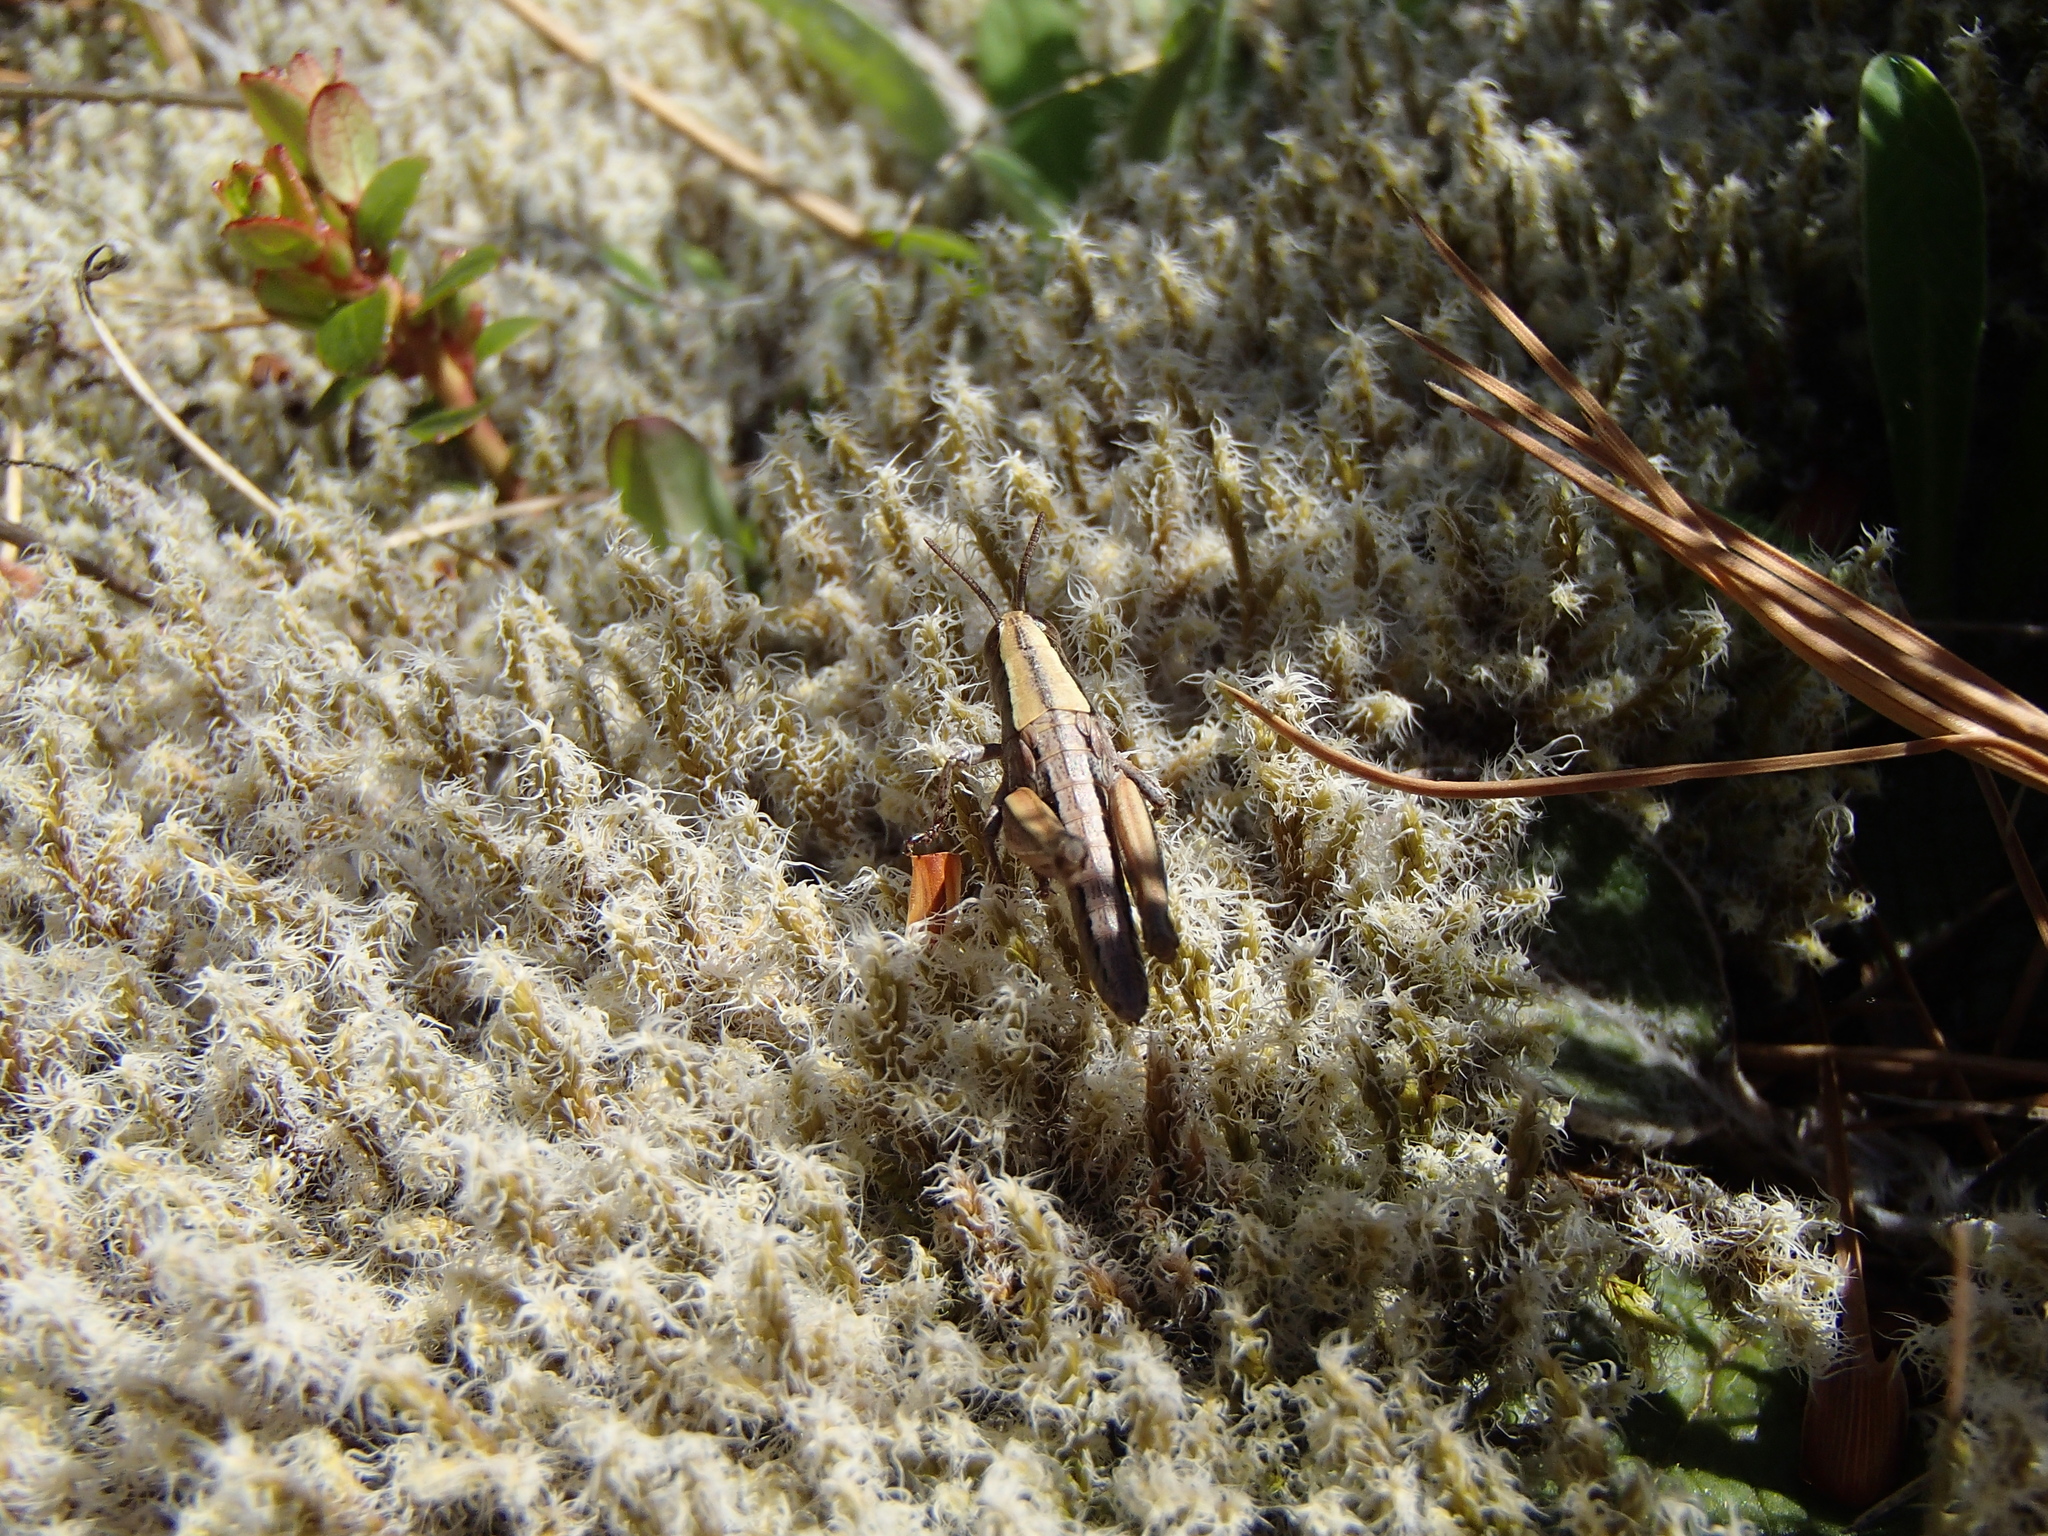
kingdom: Animalia
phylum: Arthropoda
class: Insecta
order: Orthoptera
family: Acrididae
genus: Sigaus
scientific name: Sigaus
